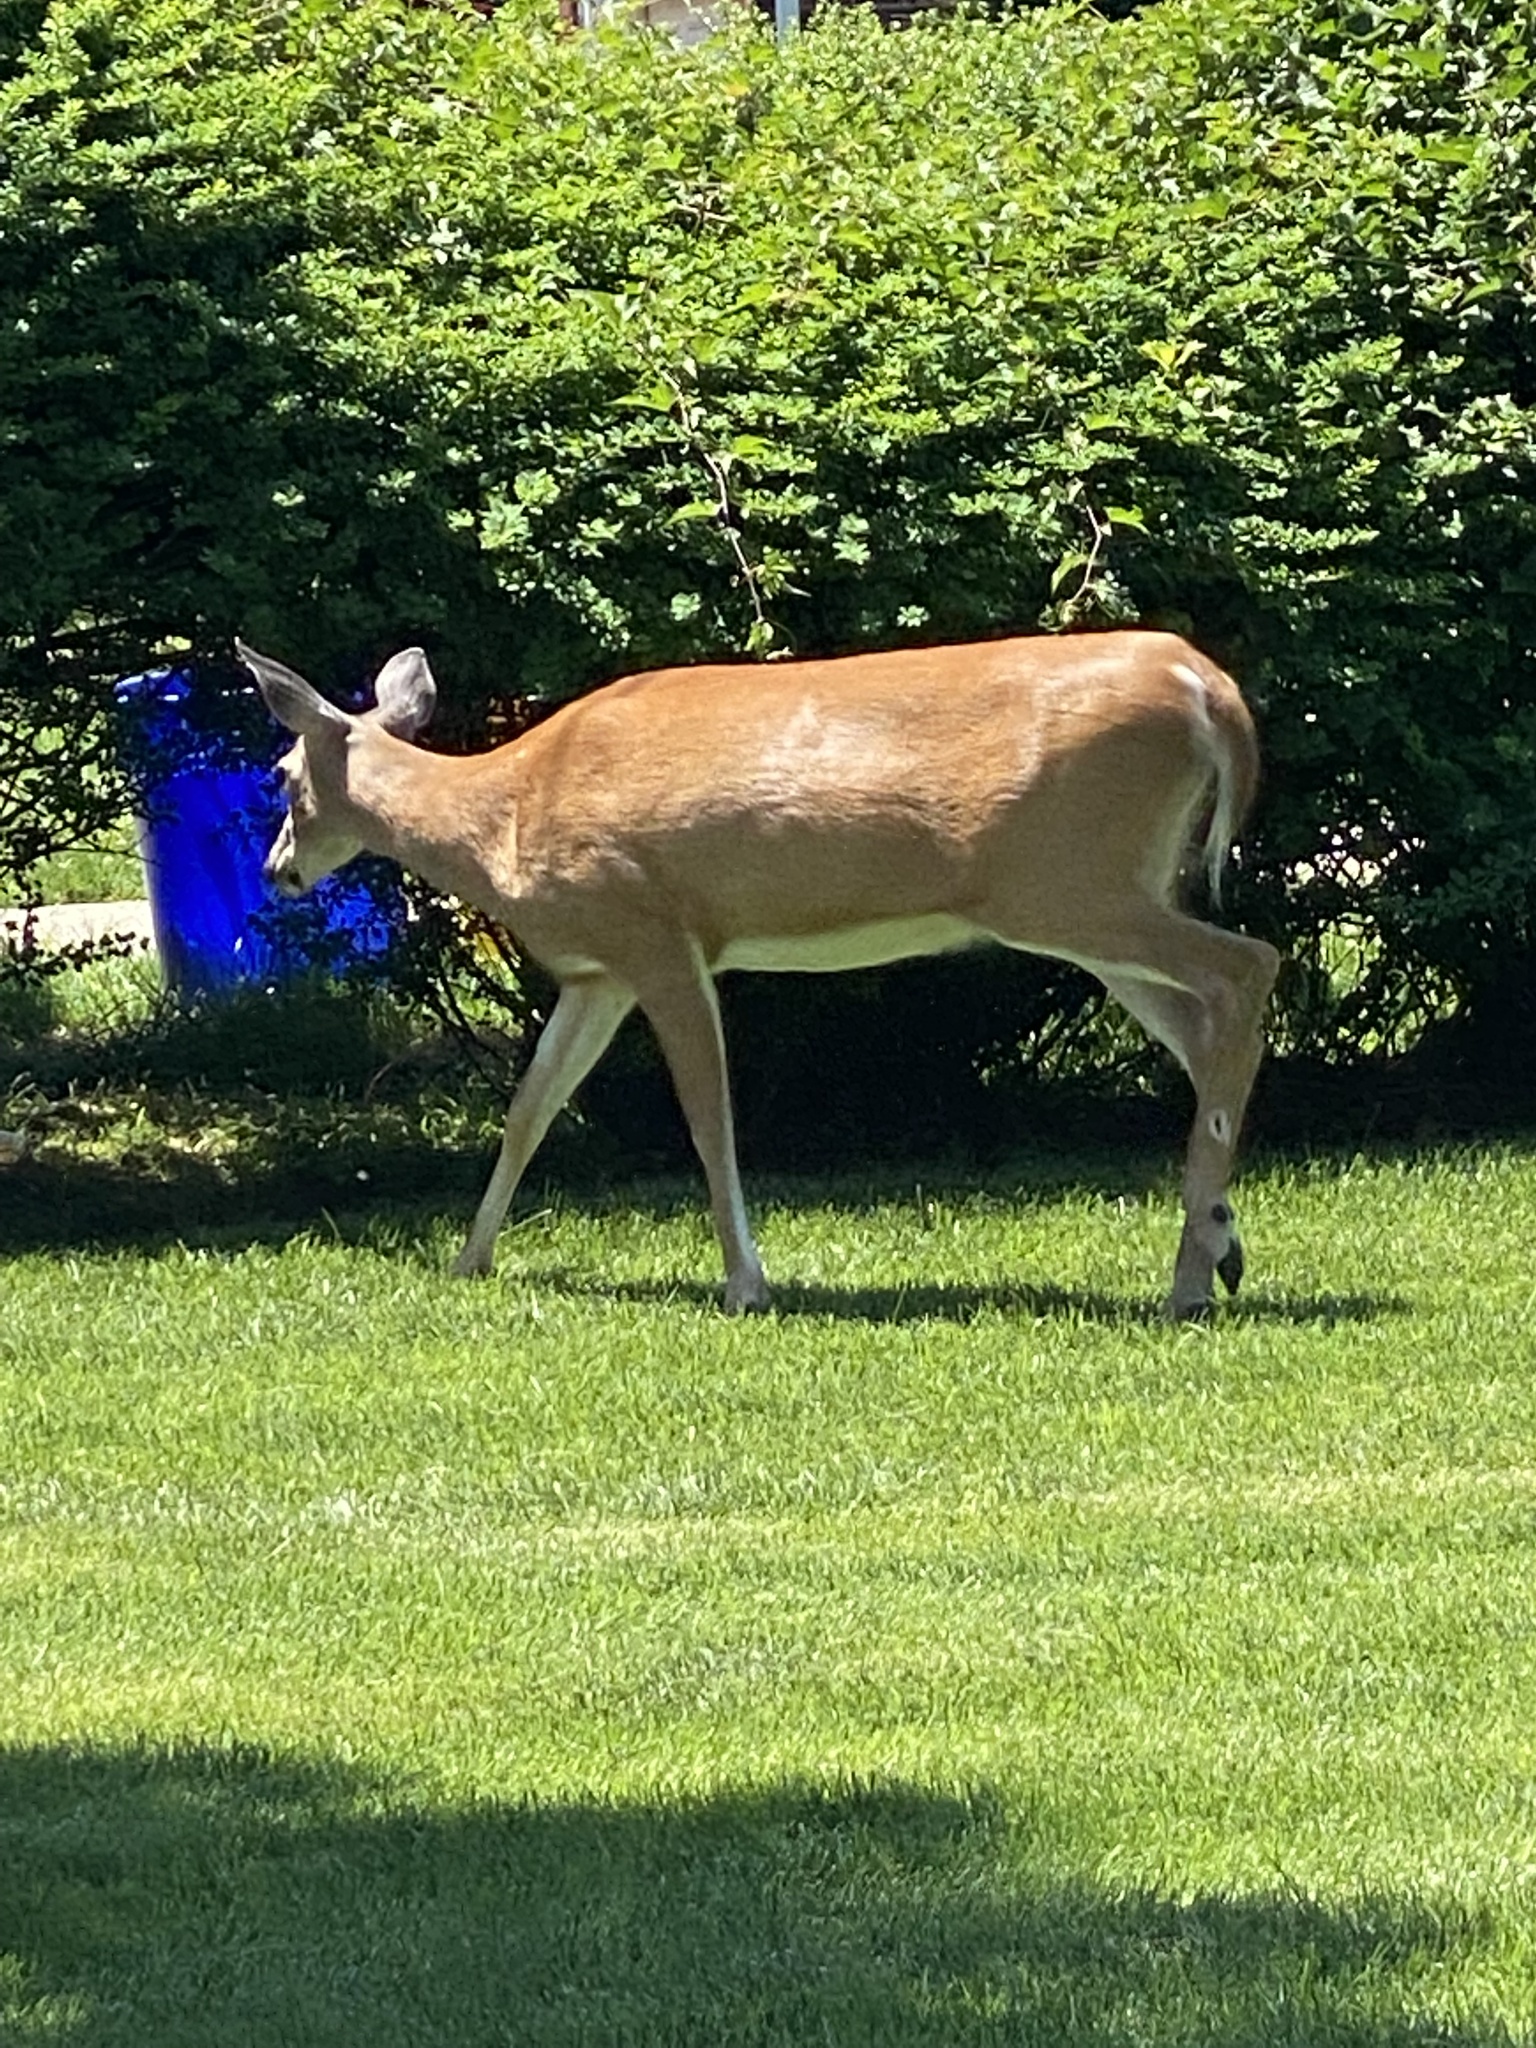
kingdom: Animalia
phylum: Chordata
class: Mammalia
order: Artiodactyla
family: Cervidae
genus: Odocoileus
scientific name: Odocoileus virginianus
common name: White-tailed deer
